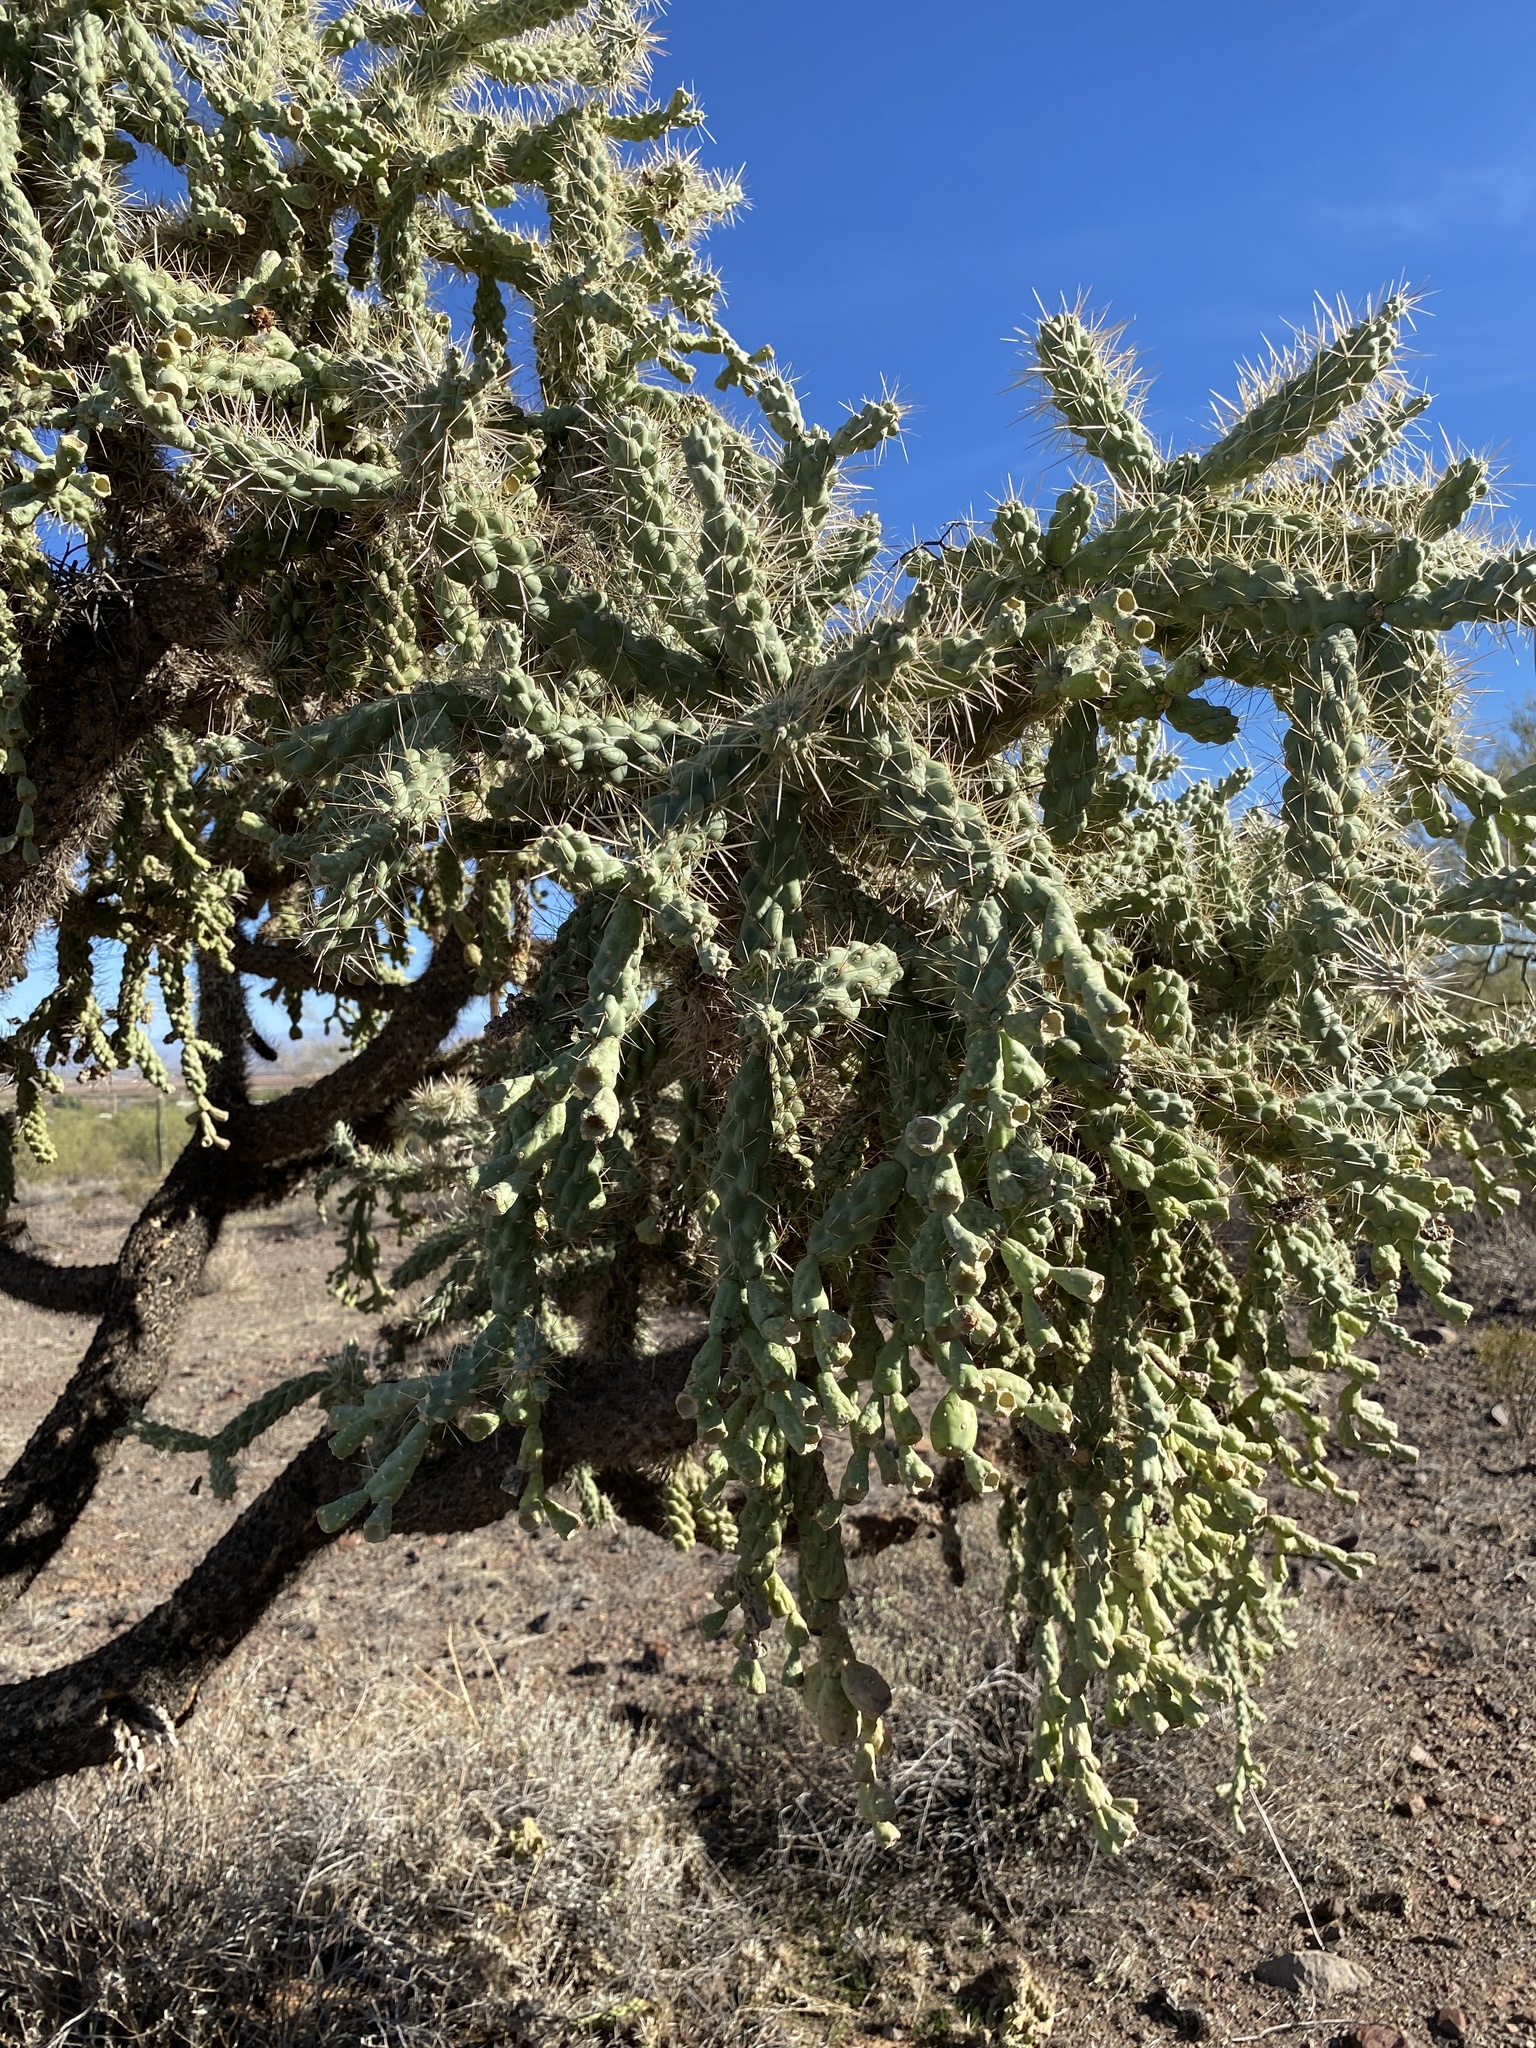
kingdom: Plantae
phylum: Tracheophyta
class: Magnoliopsida
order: Caryophyllales
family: Cactaceae
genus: Cylindropuntia
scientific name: Cylindropuntia fulgida
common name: Jumping cholla
